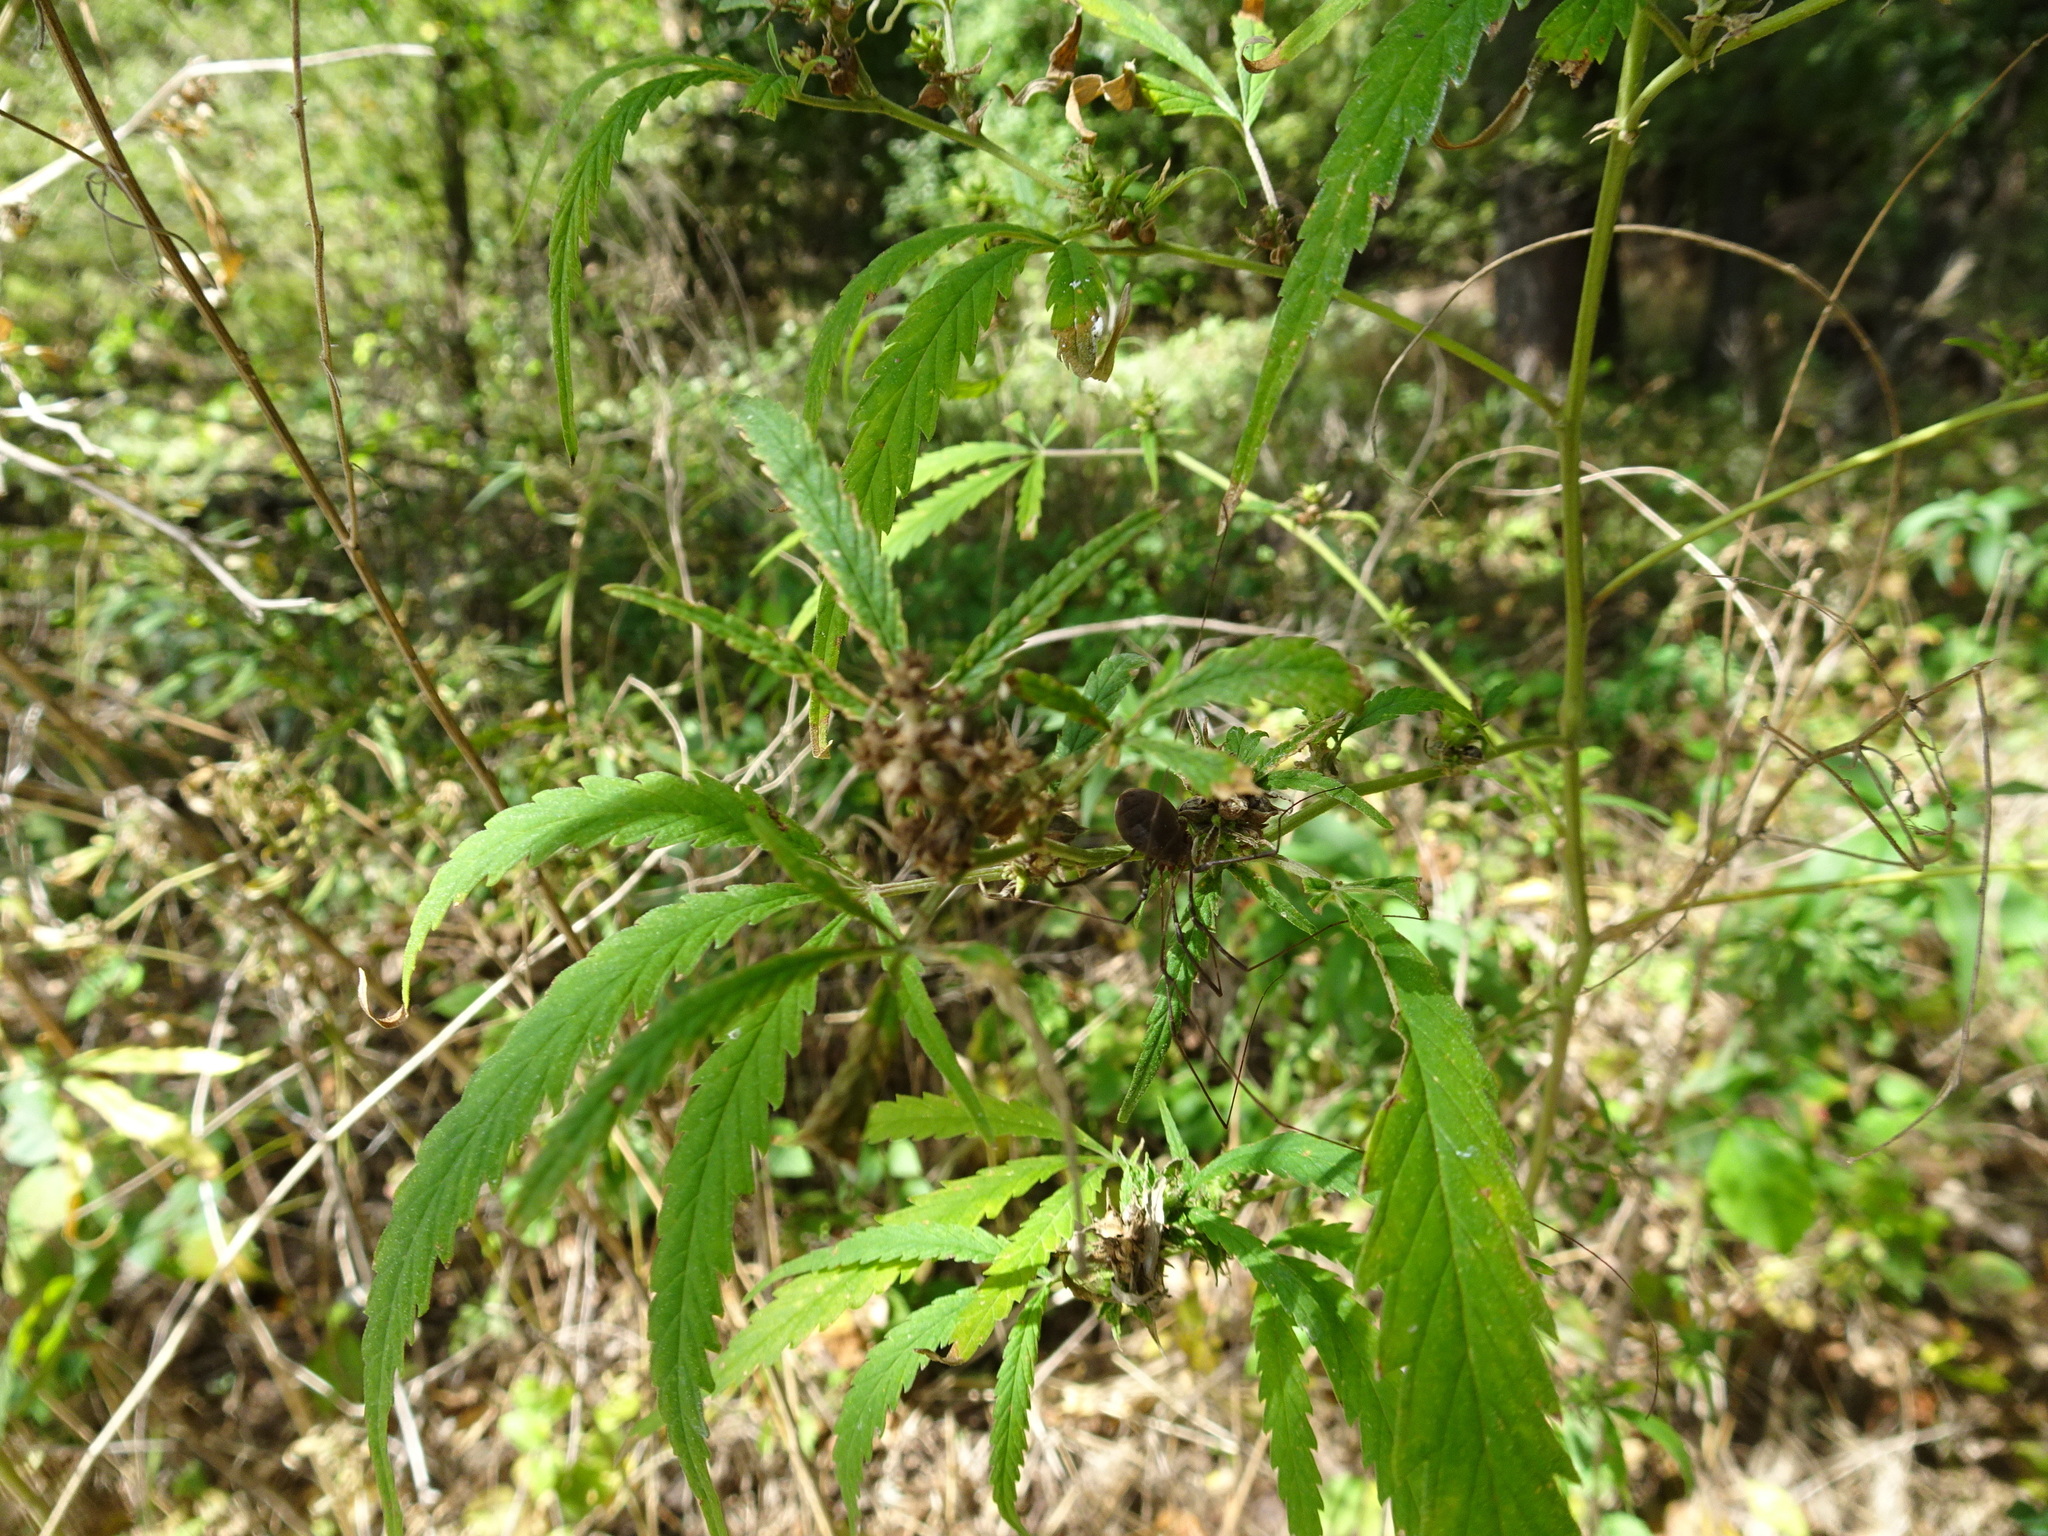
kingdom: Plantae
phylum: Tracheophyta
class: Magnoliopsida
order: Rosales
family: Cannabaceae
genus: Cannabis
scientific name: Cannabis sativa
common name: Hemp
